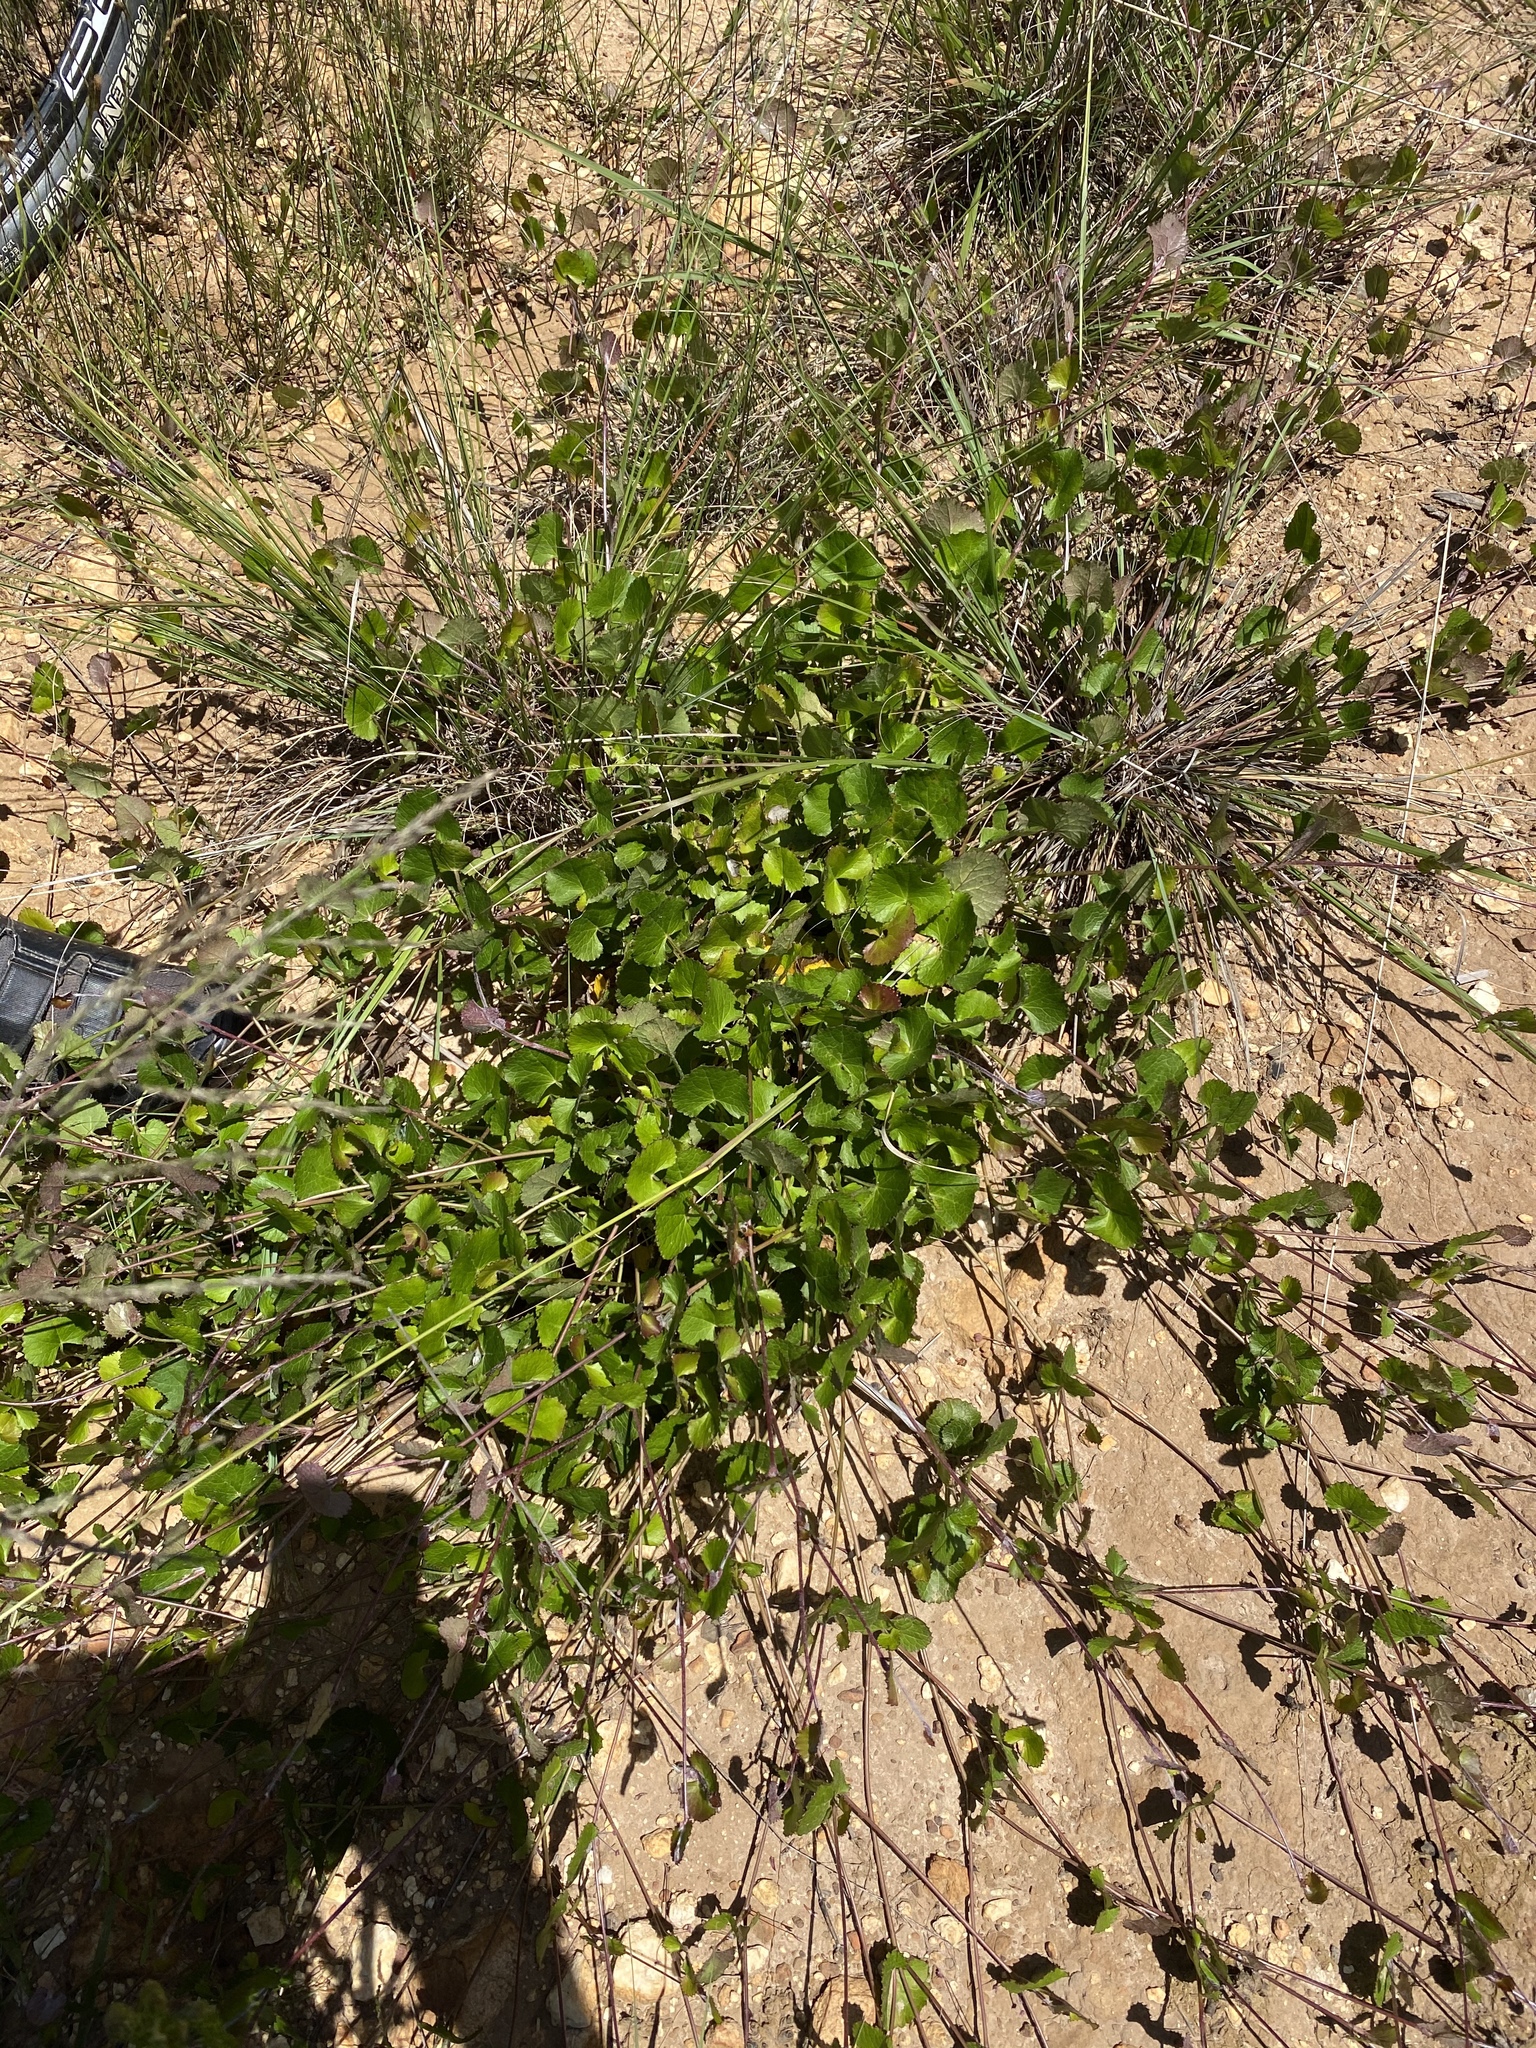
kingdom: Plantae
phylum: Tracheophyta
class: Magnoliopsida
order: Apiales
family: Apiaceae
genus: Centella
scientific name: Centella eriantha
